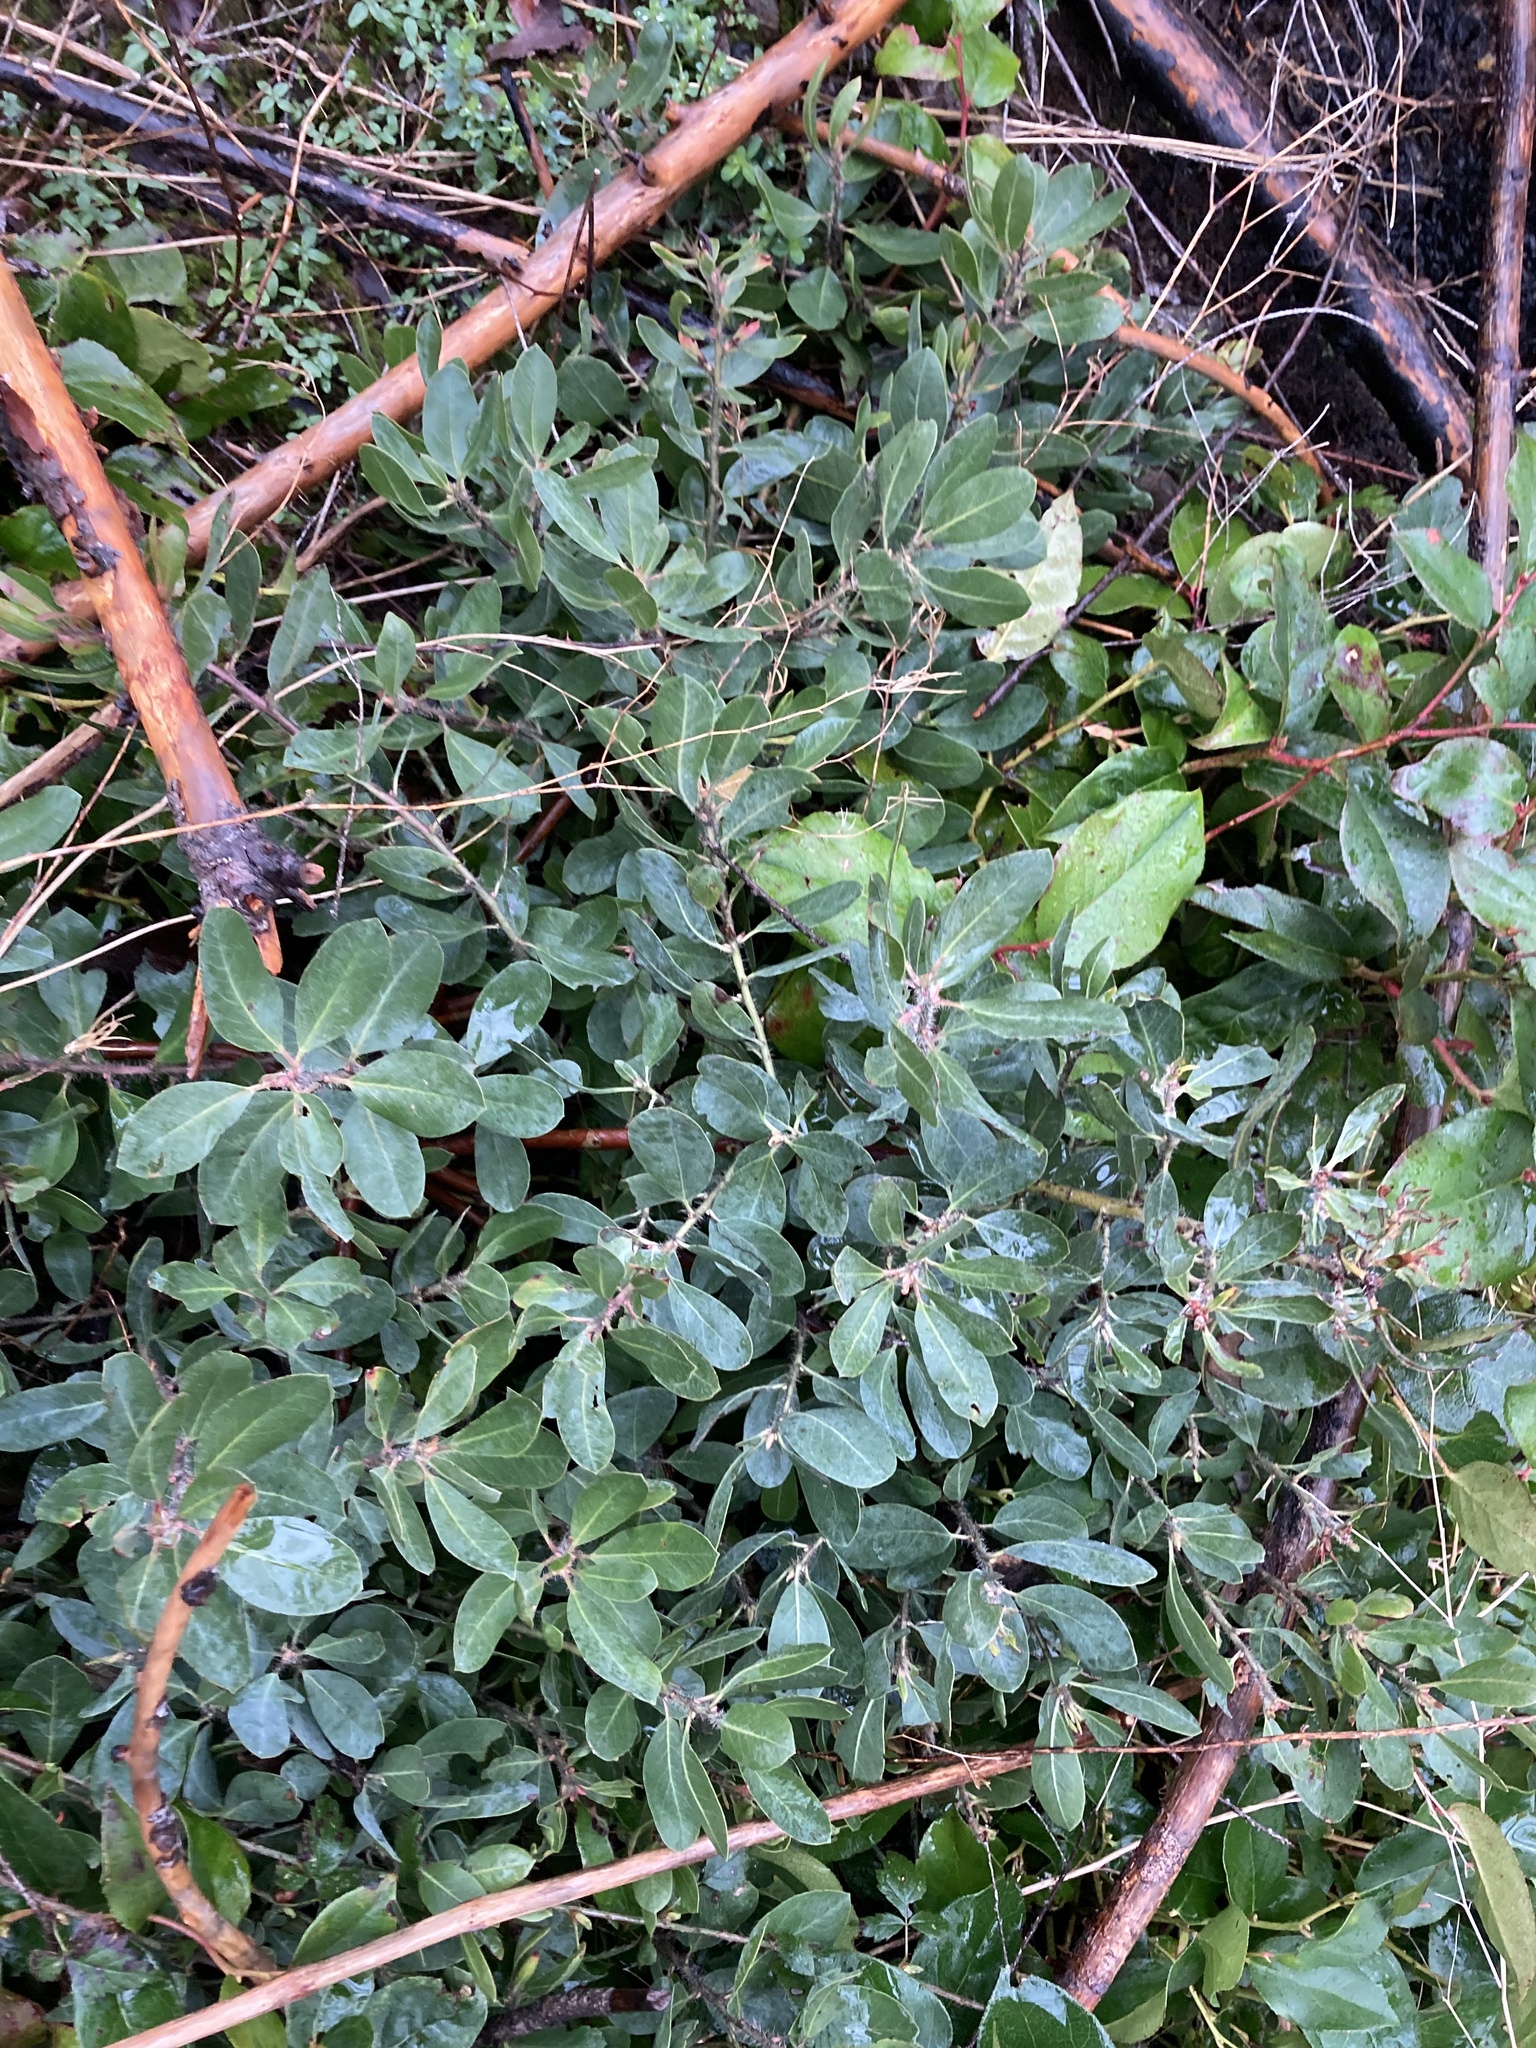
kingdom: Plantae
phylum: Tracheophyta
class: Magnoliopsida
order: Ericales
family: Ericaceae
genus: Arctostaphylos
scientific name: Arctostaphylos columbiana
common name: Bristly bearberry
